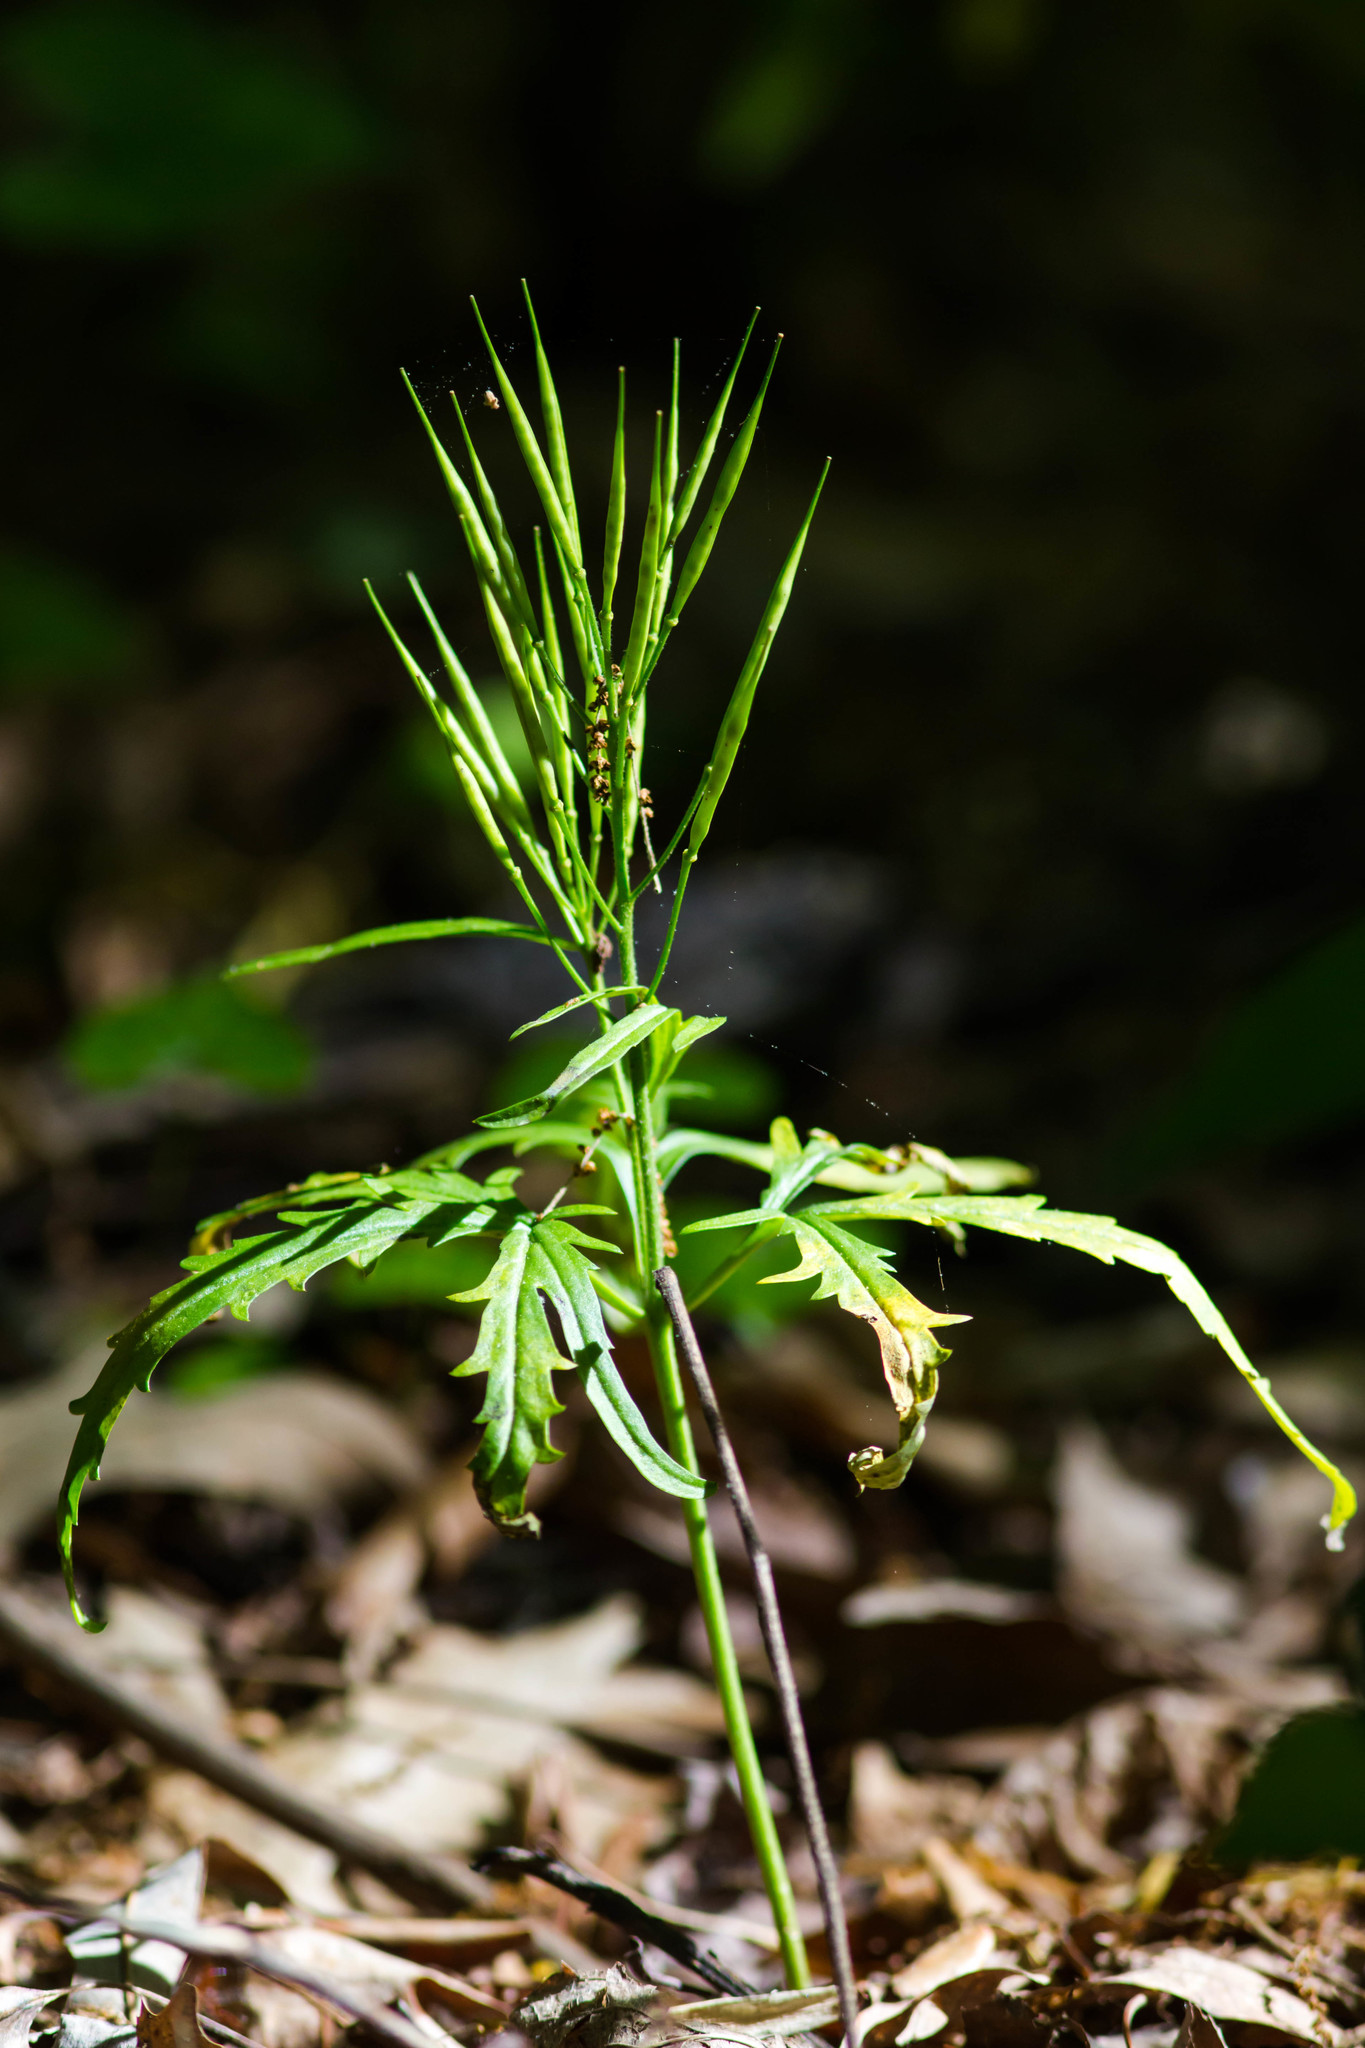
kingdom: Plantae
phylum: Tracheophyta
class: Magnoliopsida
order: Brassicales
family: Brassicaceae
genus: Cardamine
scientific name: Cardamine concatenata
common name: Cut-leaf toothcup
